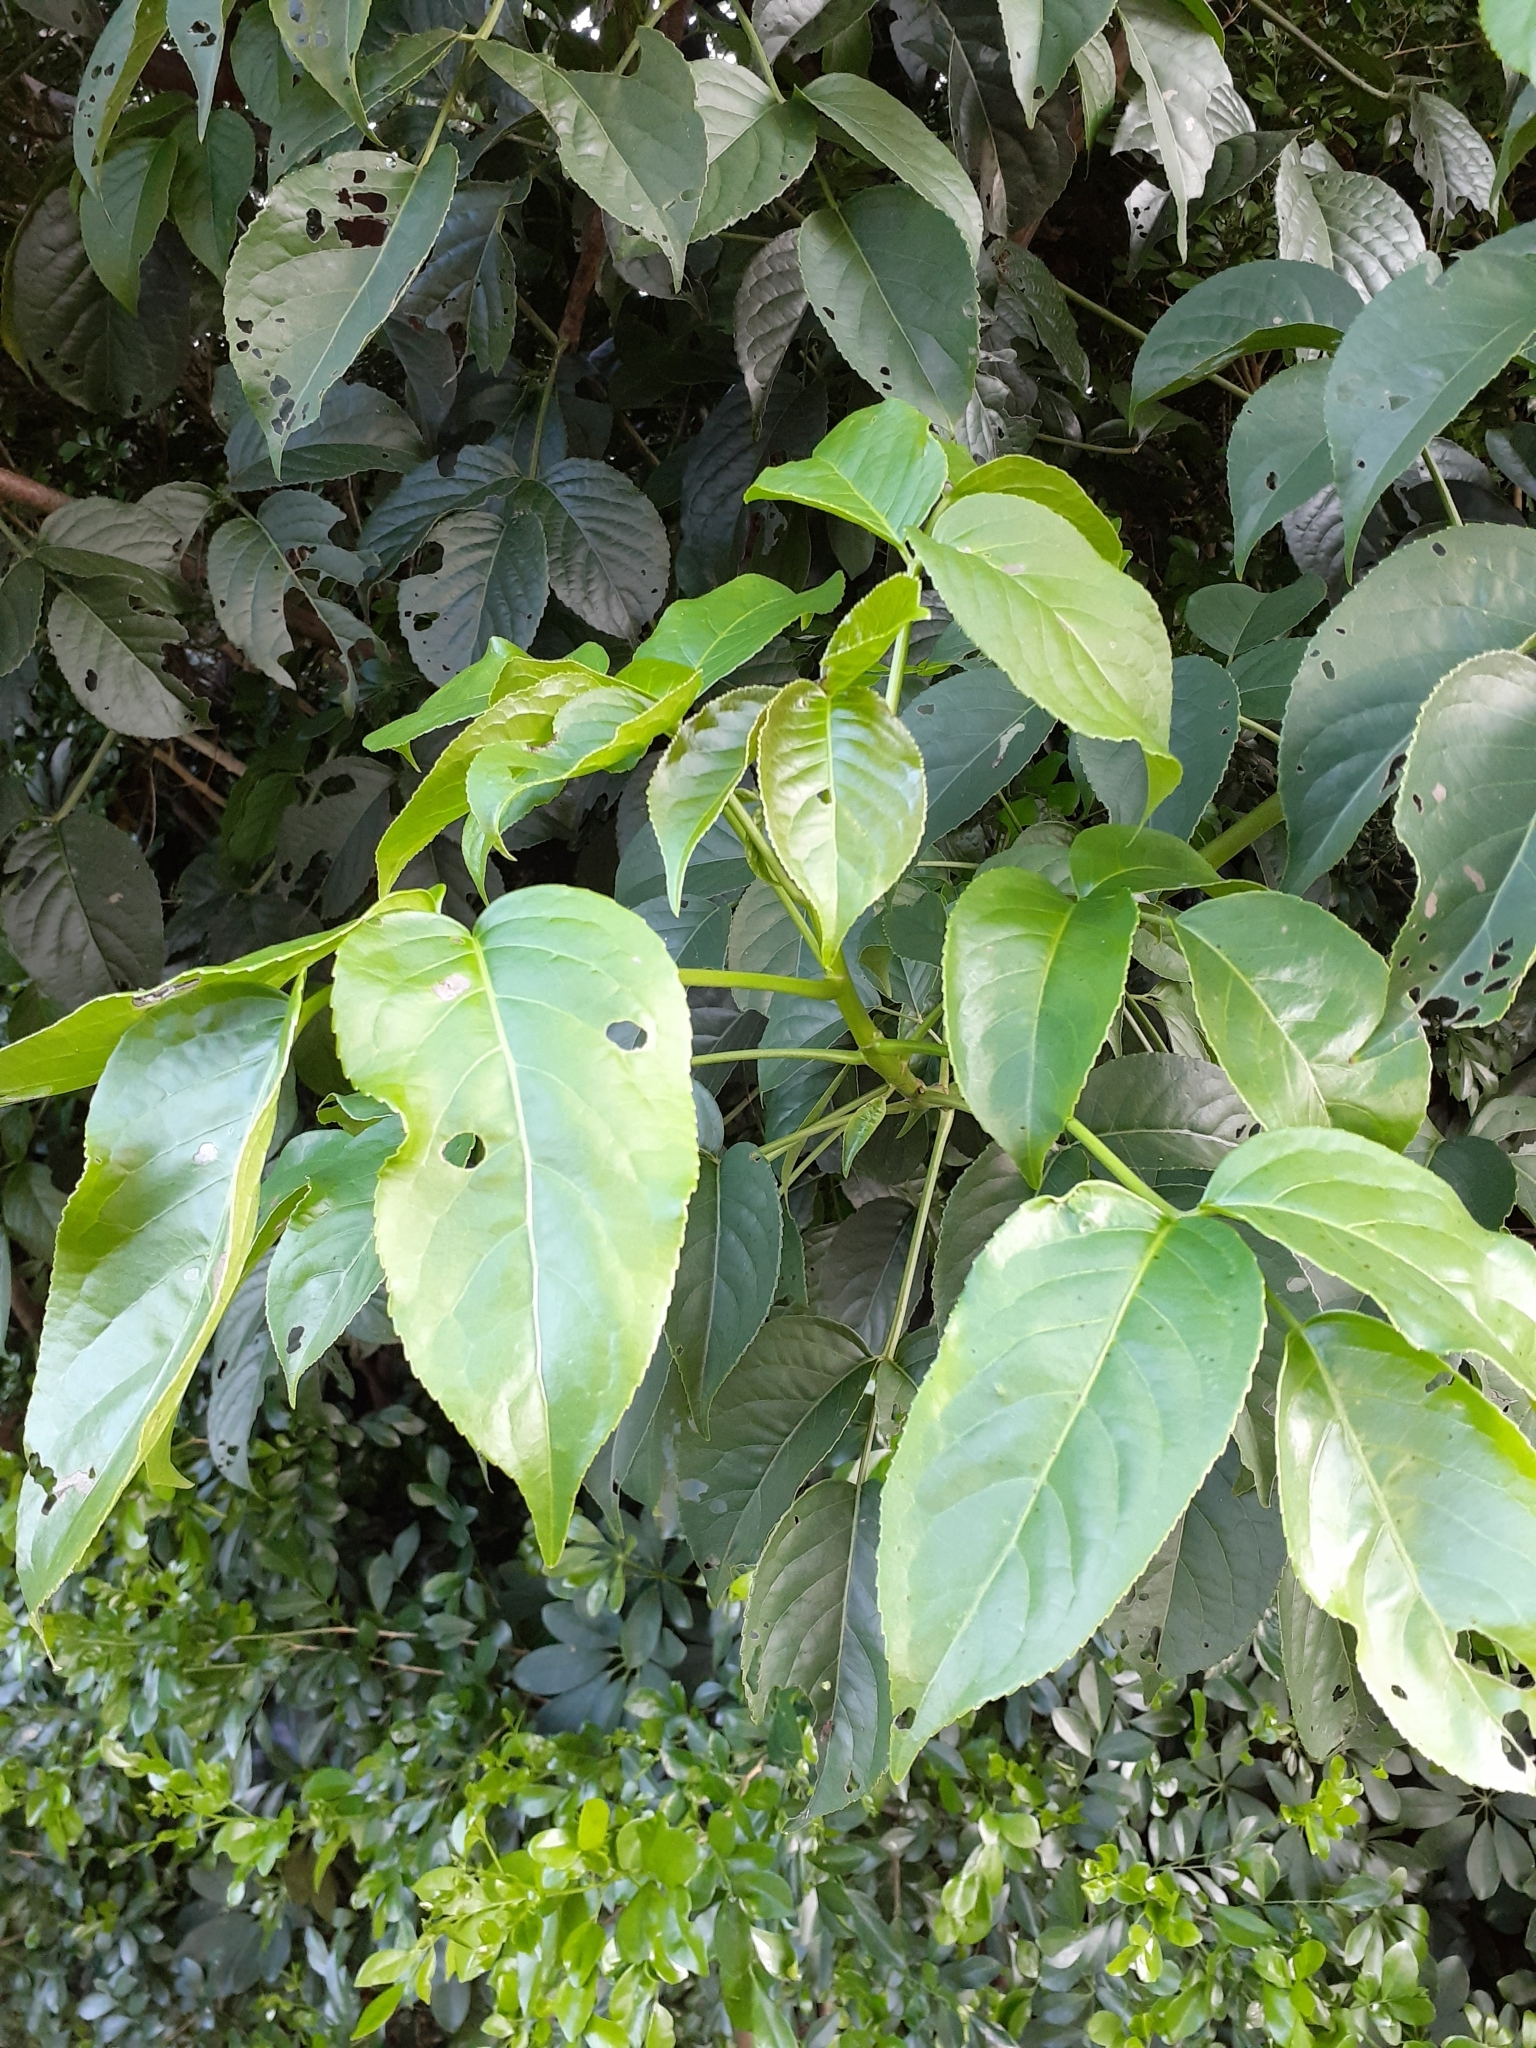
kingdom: Plantae
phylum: Tracheophyta
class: Magnoliopsida
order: Malpighiales
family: Phyllanthaceae
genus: Bischofia
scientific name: Bischofia javanica
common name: Javanese bishopwood
